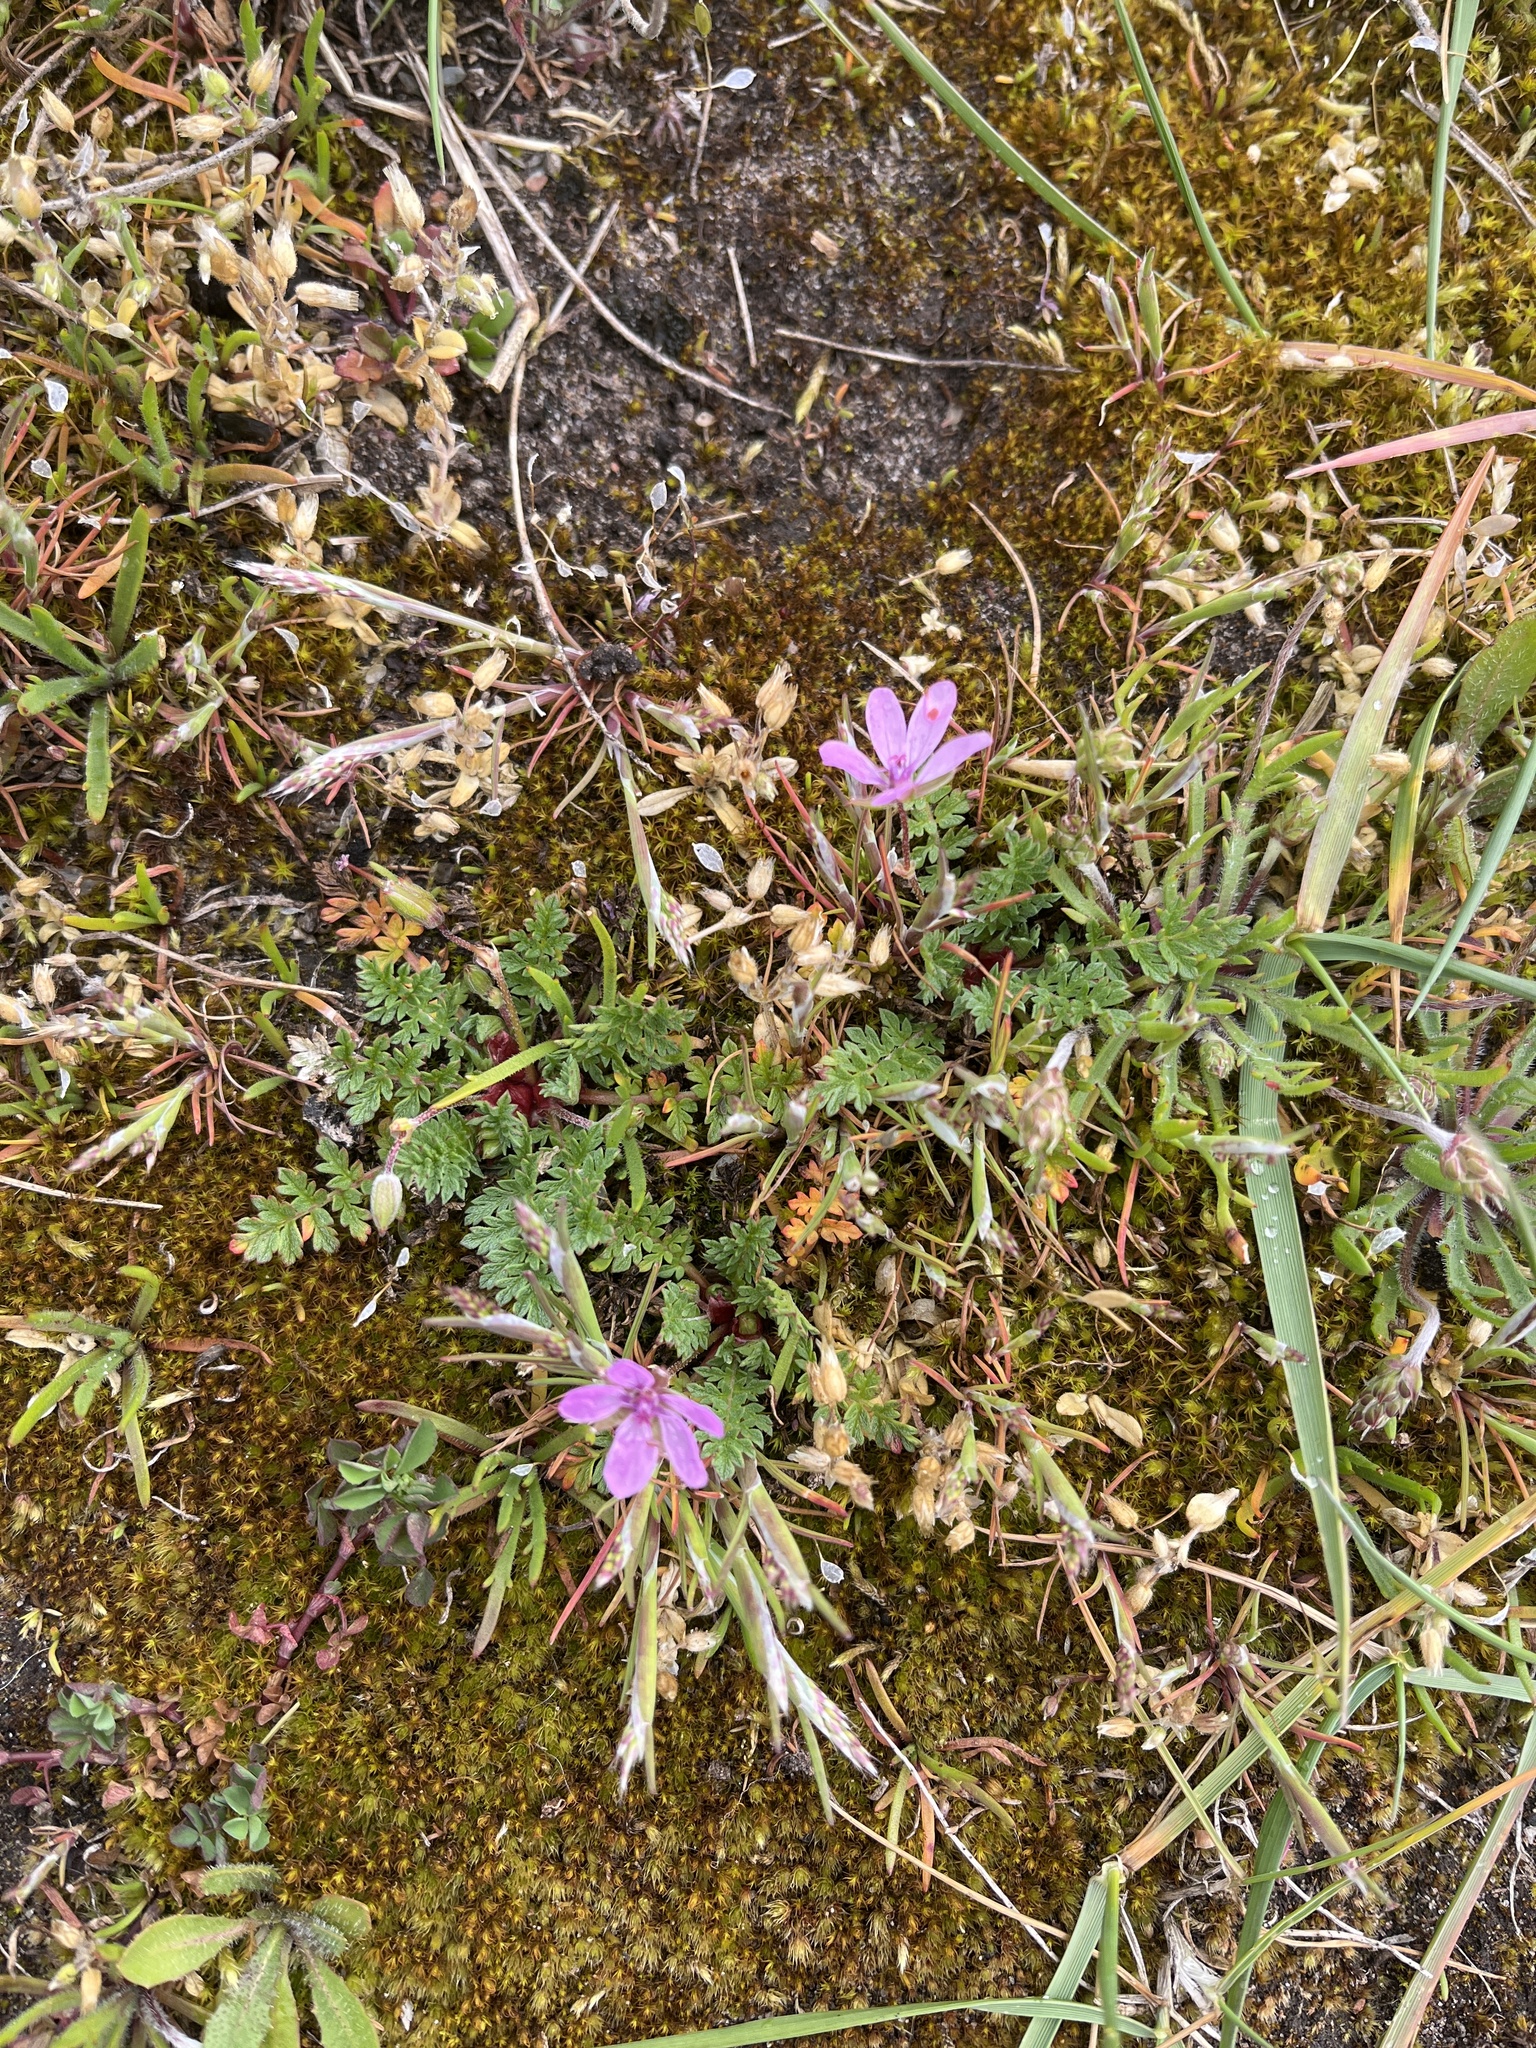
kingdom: Plantae
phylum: Tracheophyta
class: Magnoliopsida
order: Geraniales
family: Geraniaceae
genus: Erodium
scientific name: Erodium cicutarium
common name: Common stork's-bill
